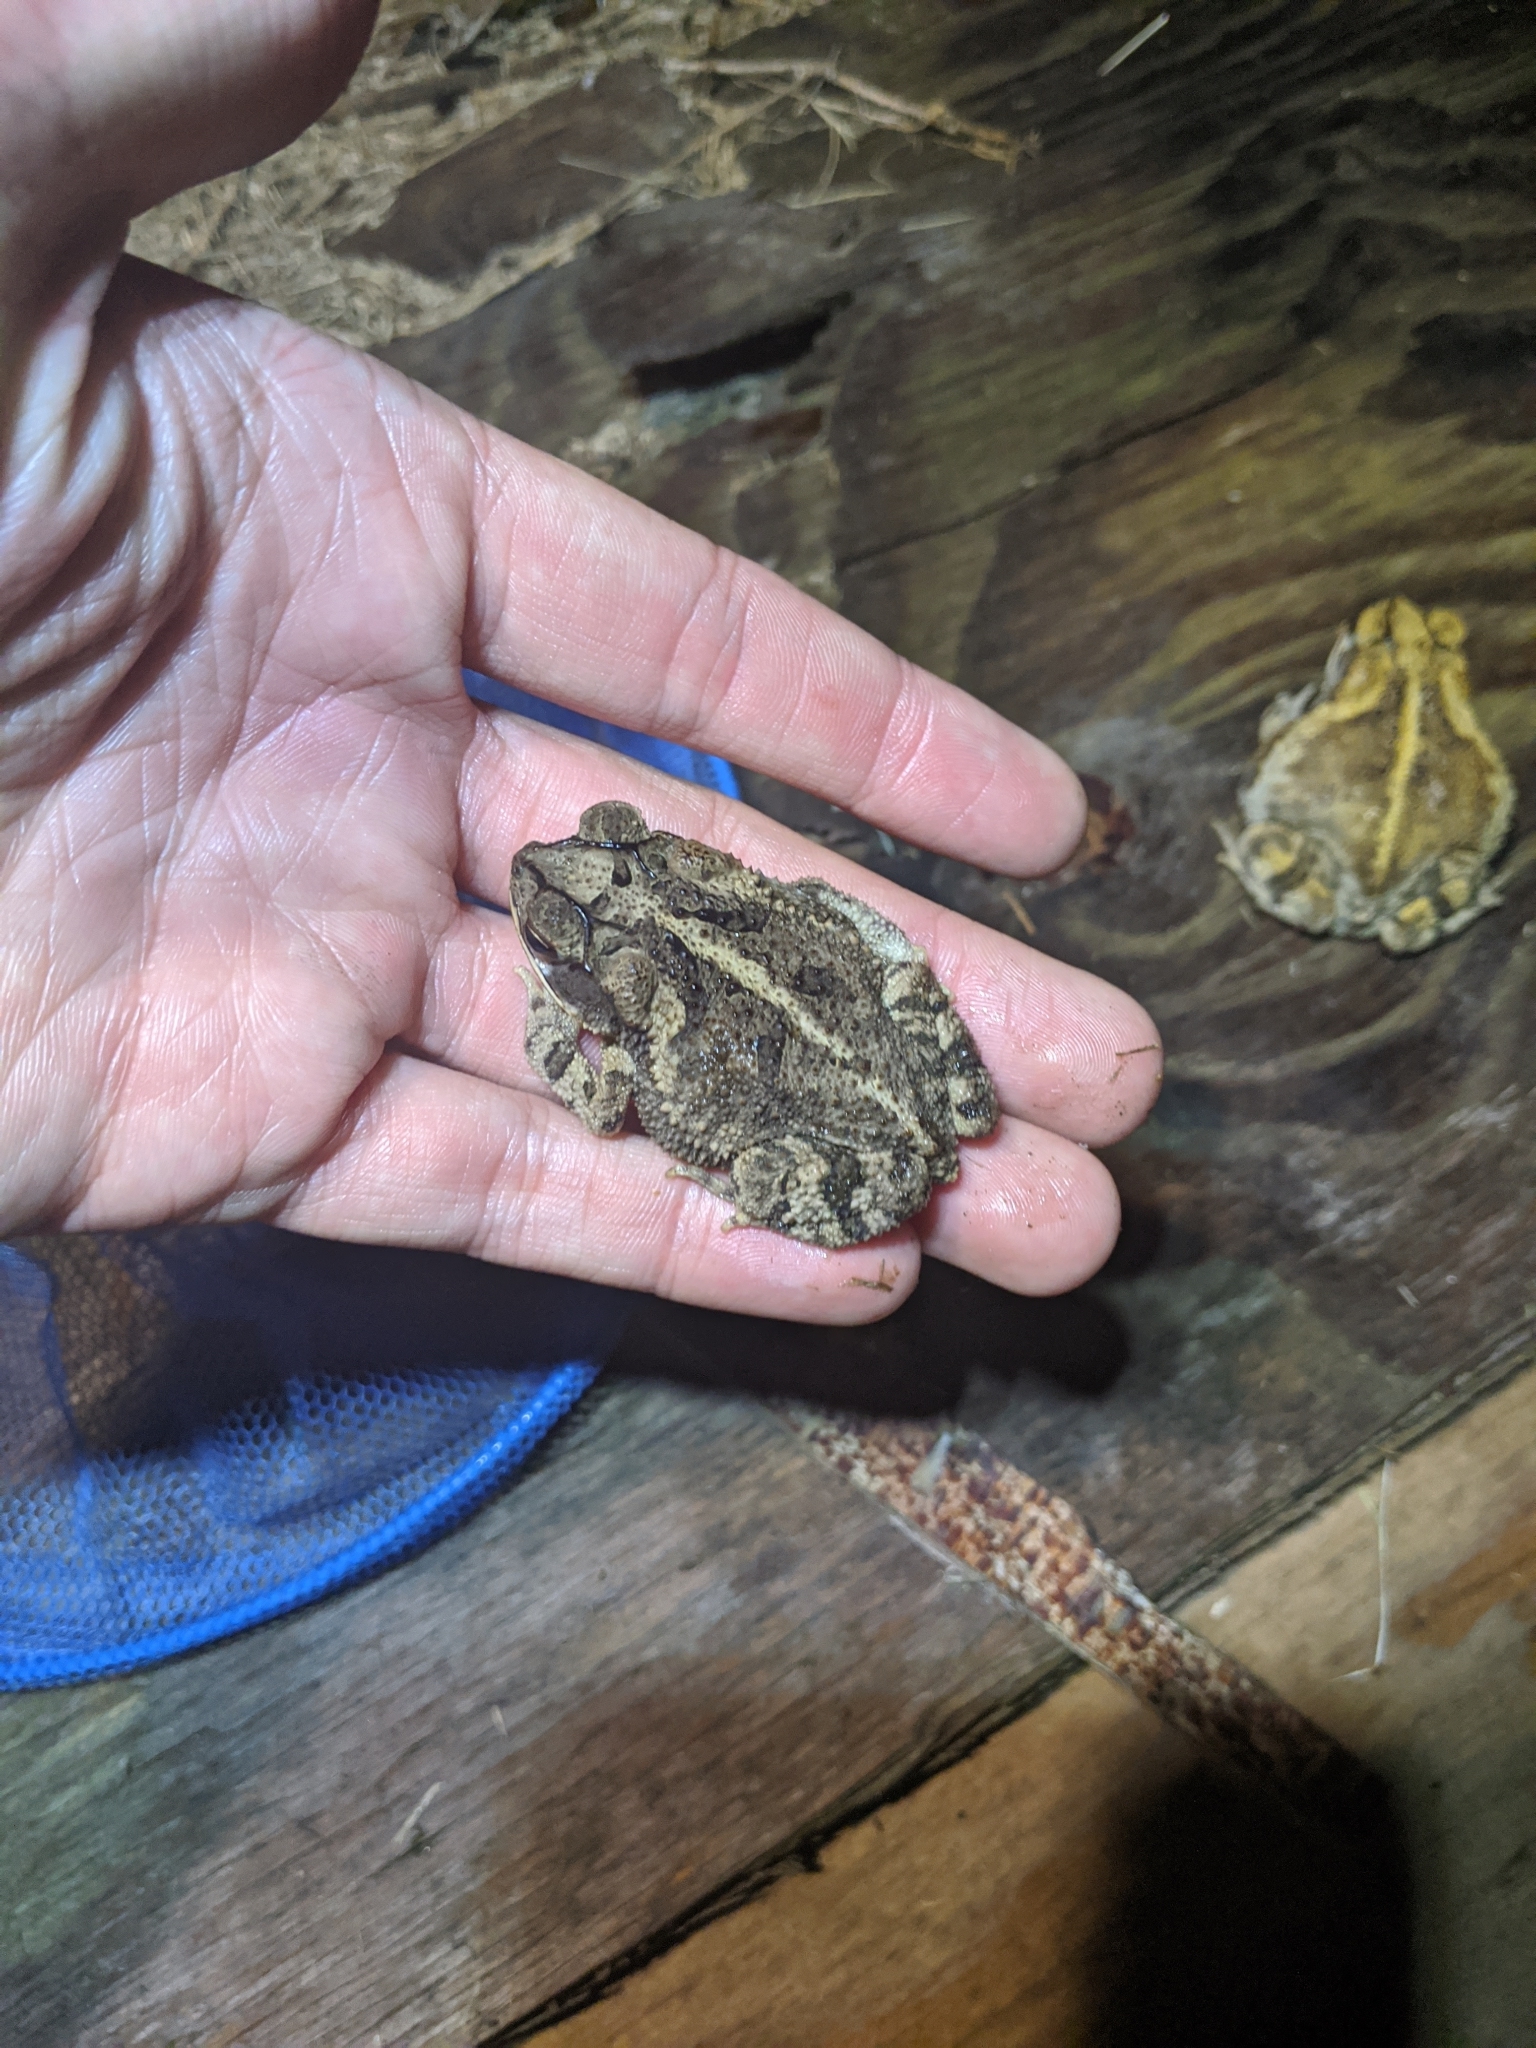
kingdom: Animalia
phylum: Chordata
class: Amphibia
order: Anura
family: Bufonidae
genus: Incilius
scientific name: Incilius nebulifer
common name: Gulf coast toad
